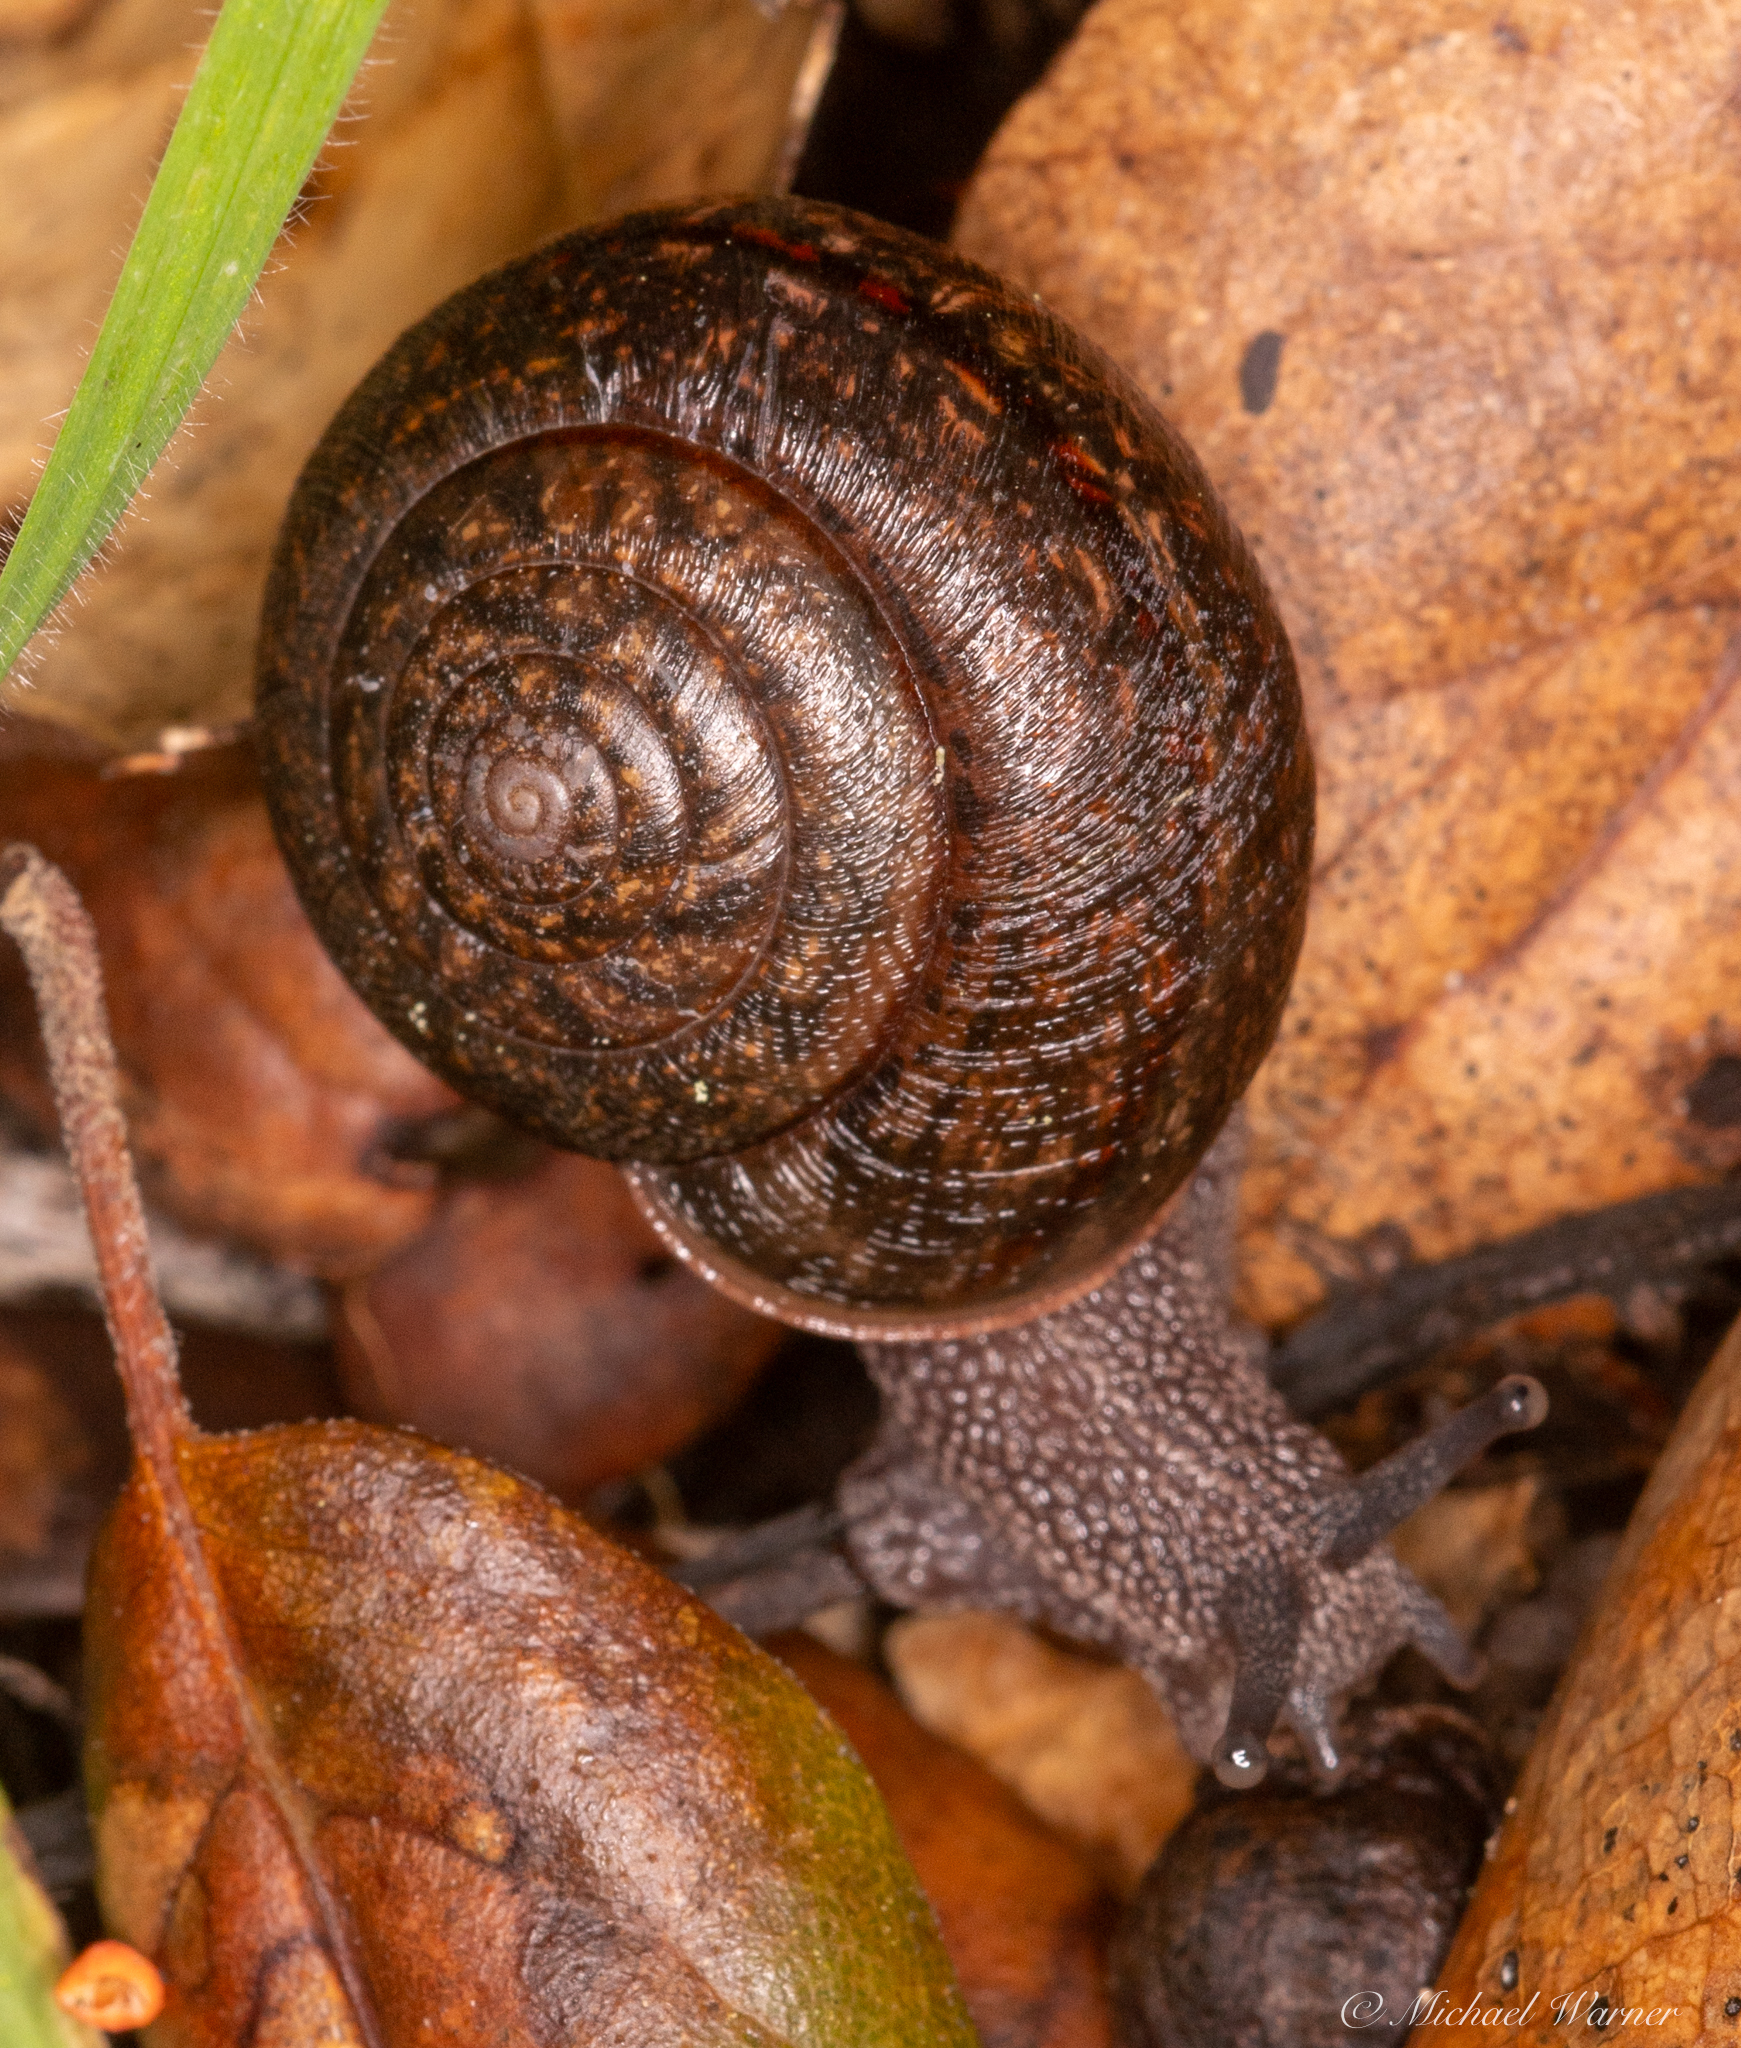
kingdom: Animalia
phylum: Mollusca
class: Gastropoda
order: Stylommatophora
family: Xanthonychidae
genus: Helminthoglypta
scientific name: Helminthoglypta diabloensis
